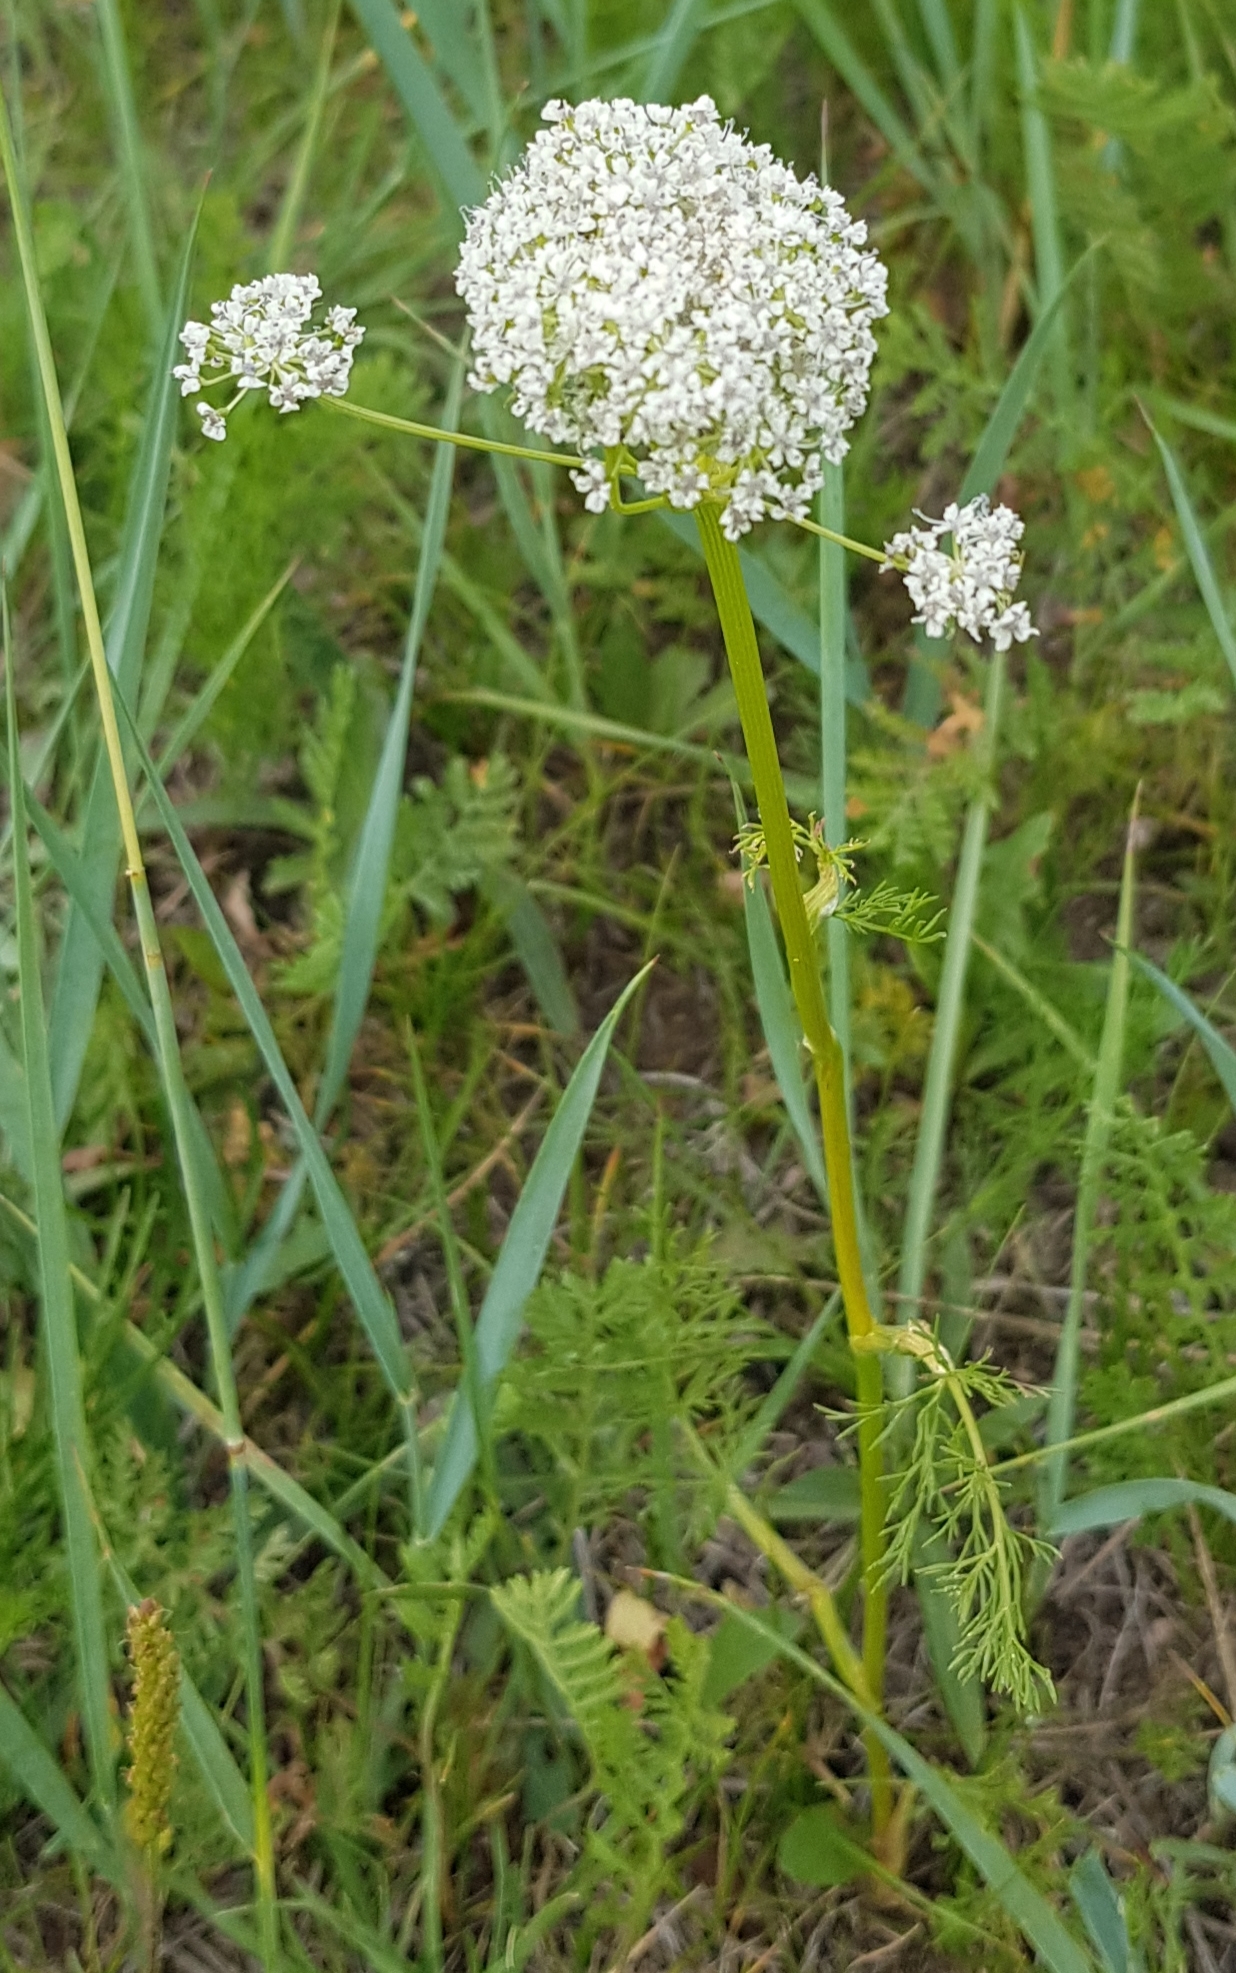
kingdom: Plantae
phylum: Tracheophyta
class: Magnoliopsida
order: Apiales
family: Apiaceae
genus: Carum
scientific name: Carum buriaticum
